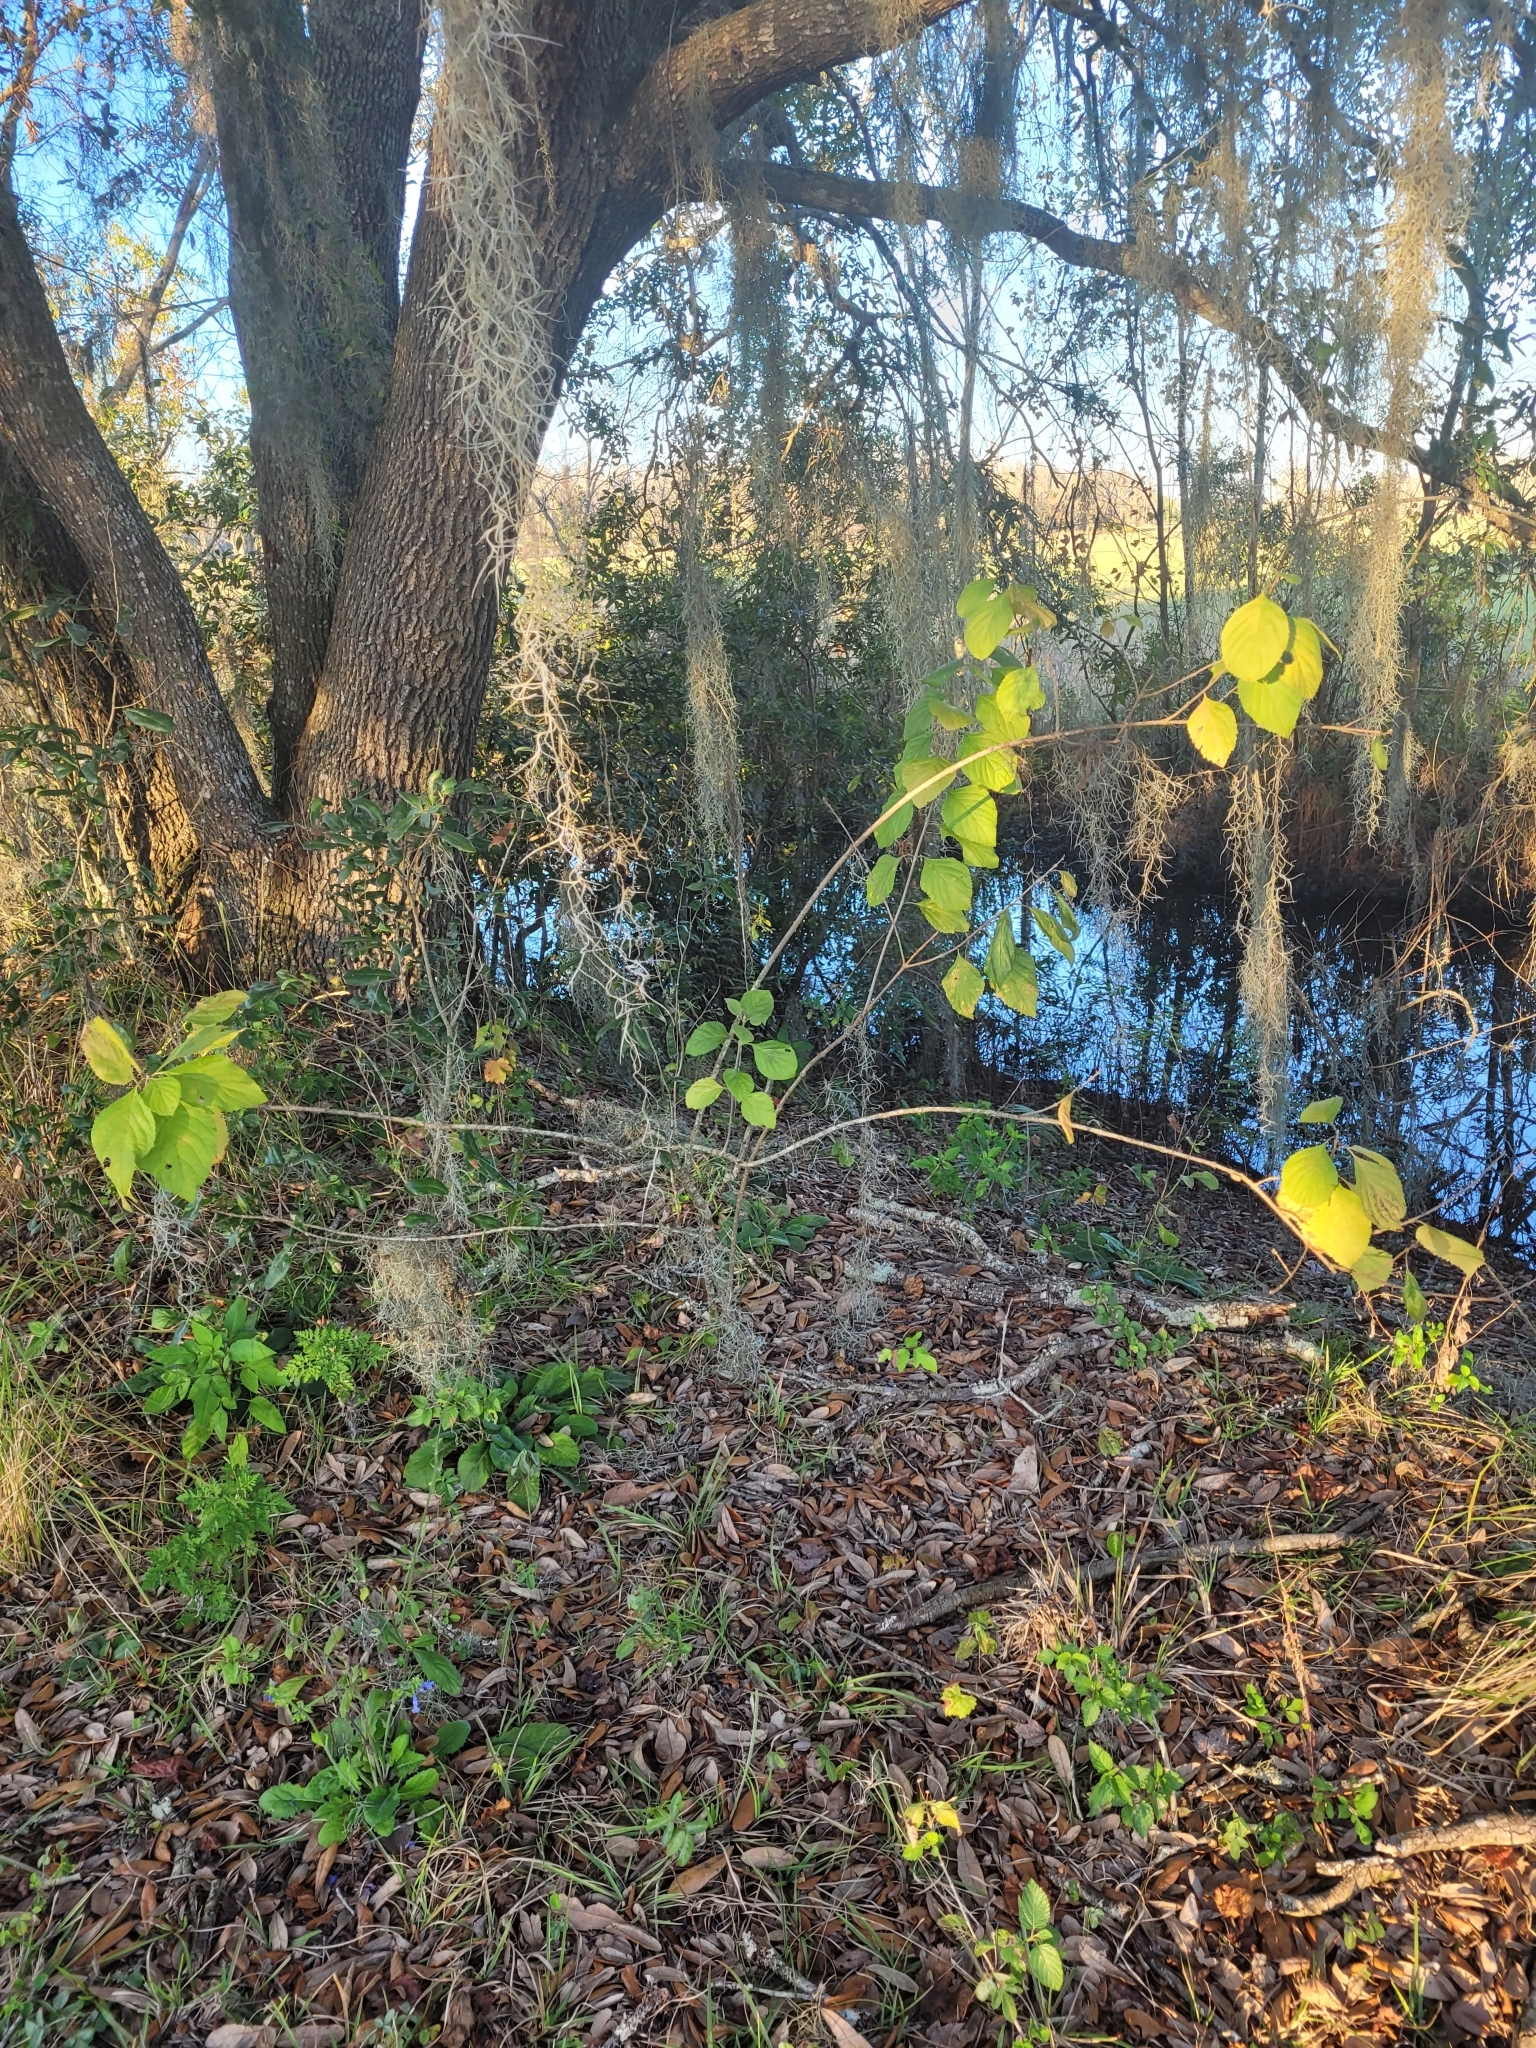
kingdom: Plantae
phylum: Tracheophyta
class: Magnoliopsida
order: Lamiales
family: Lamiaceae
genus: Callicarpa
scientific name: Callicarpa americana
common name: American beautyberry
